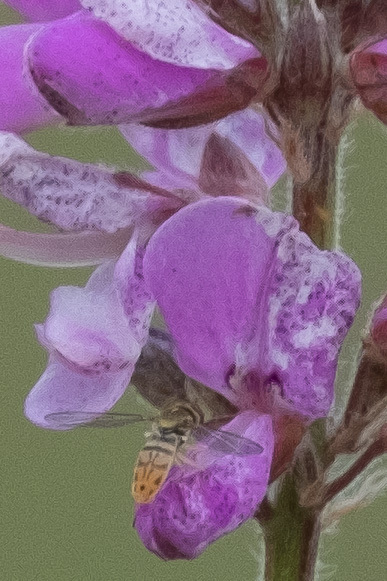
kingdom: Animalia
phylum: Arthropoda
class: Insecta
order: Diptera
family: Syrphidae
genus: Toxomerus
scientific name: Toxomerus marginatus
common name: Syrphid fly
